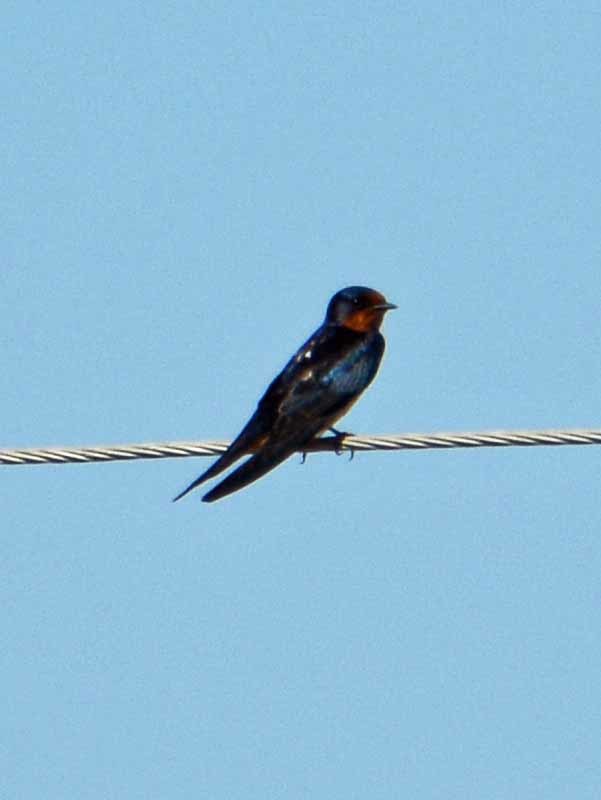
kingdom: Animalia
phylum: Chordata
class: Aves
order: Passeriformes
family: Hirundinidae
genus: Hirundo
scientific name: Hirundo rustica
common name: Barn swallow
